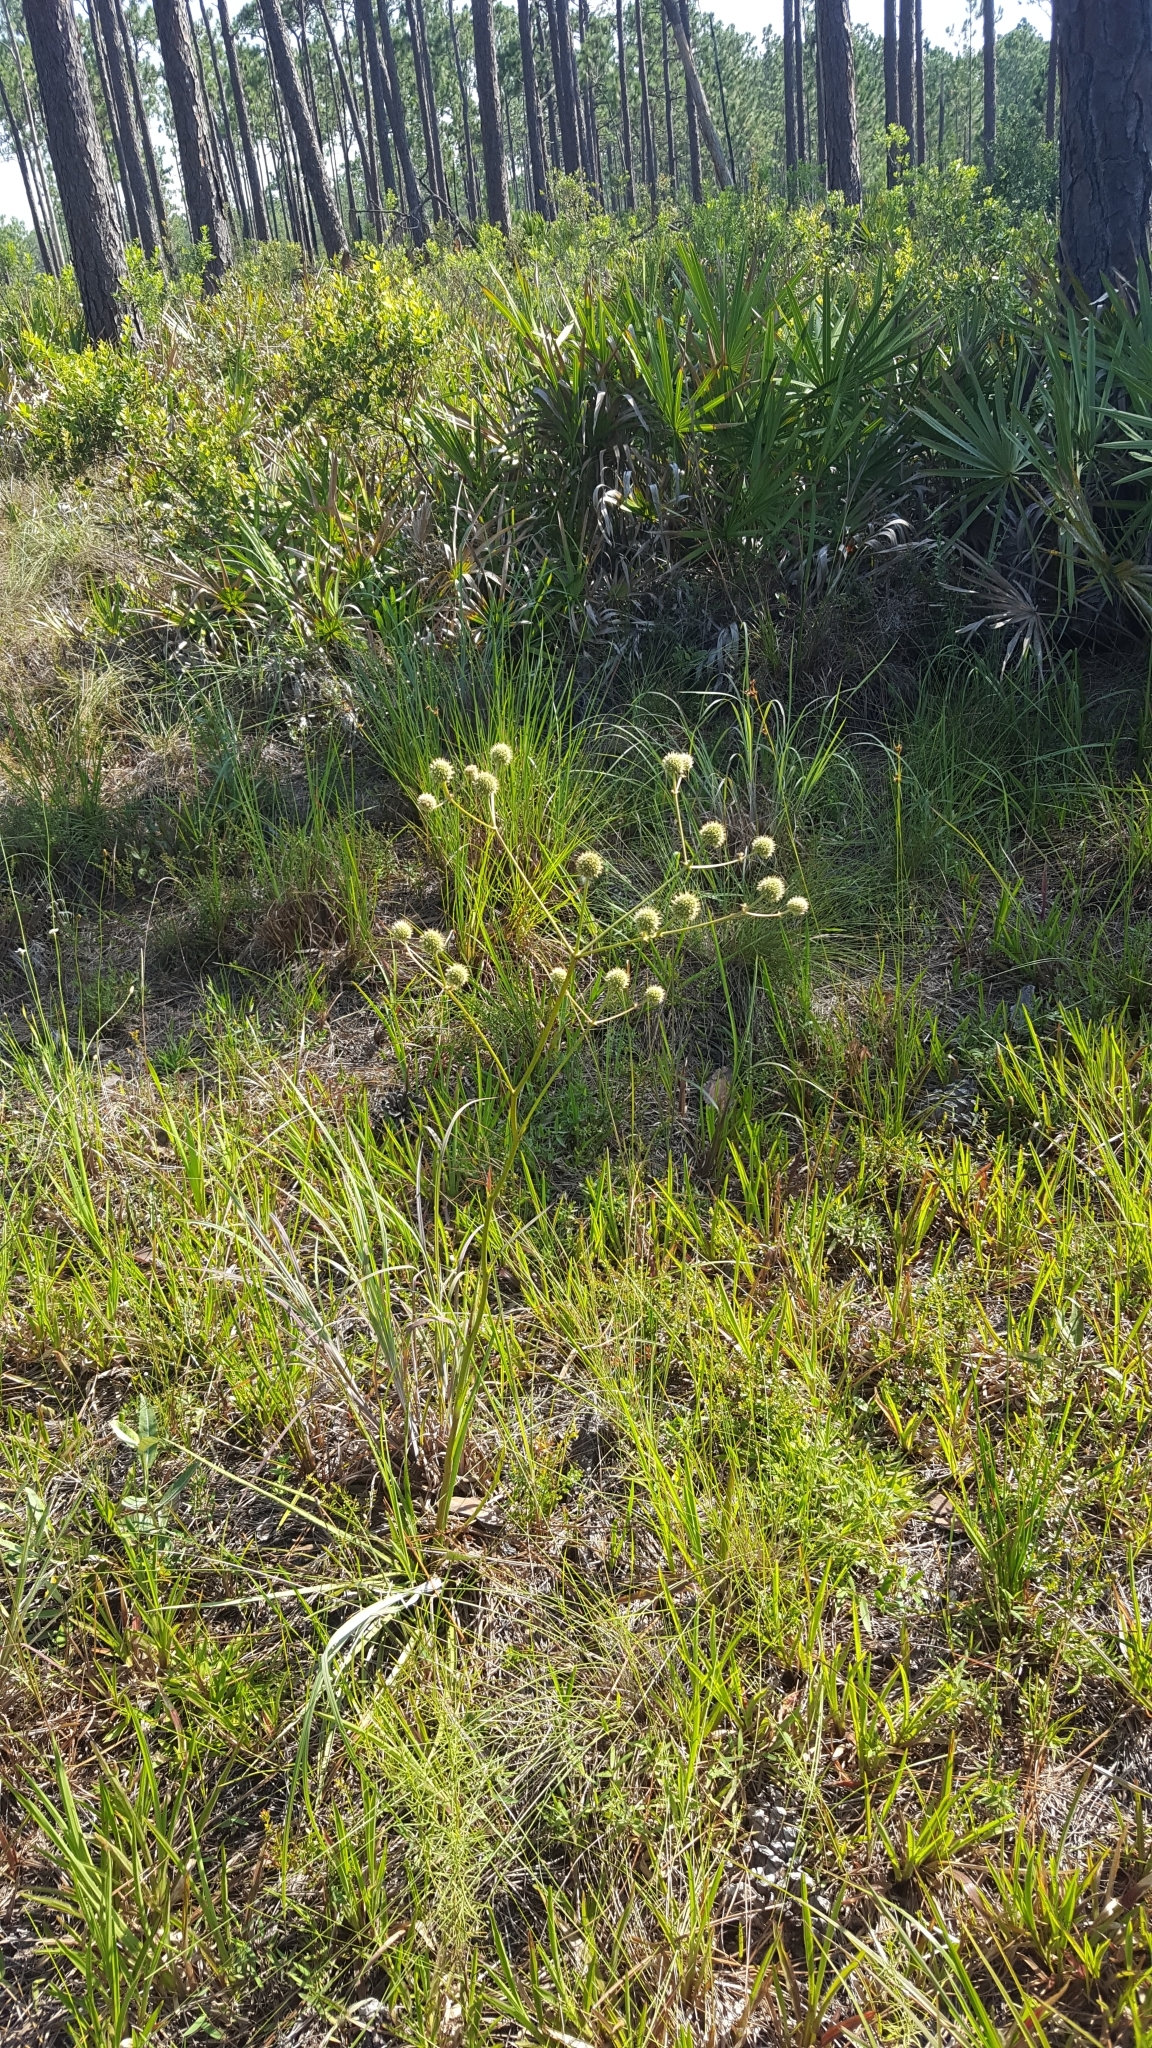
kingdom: Plantae
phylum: Tracheophyta
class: Magnoliopsida
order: Apiales
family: Apiaceae
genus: Eryngium
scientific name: Eryngium yuccifolium
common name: Button eryngo
